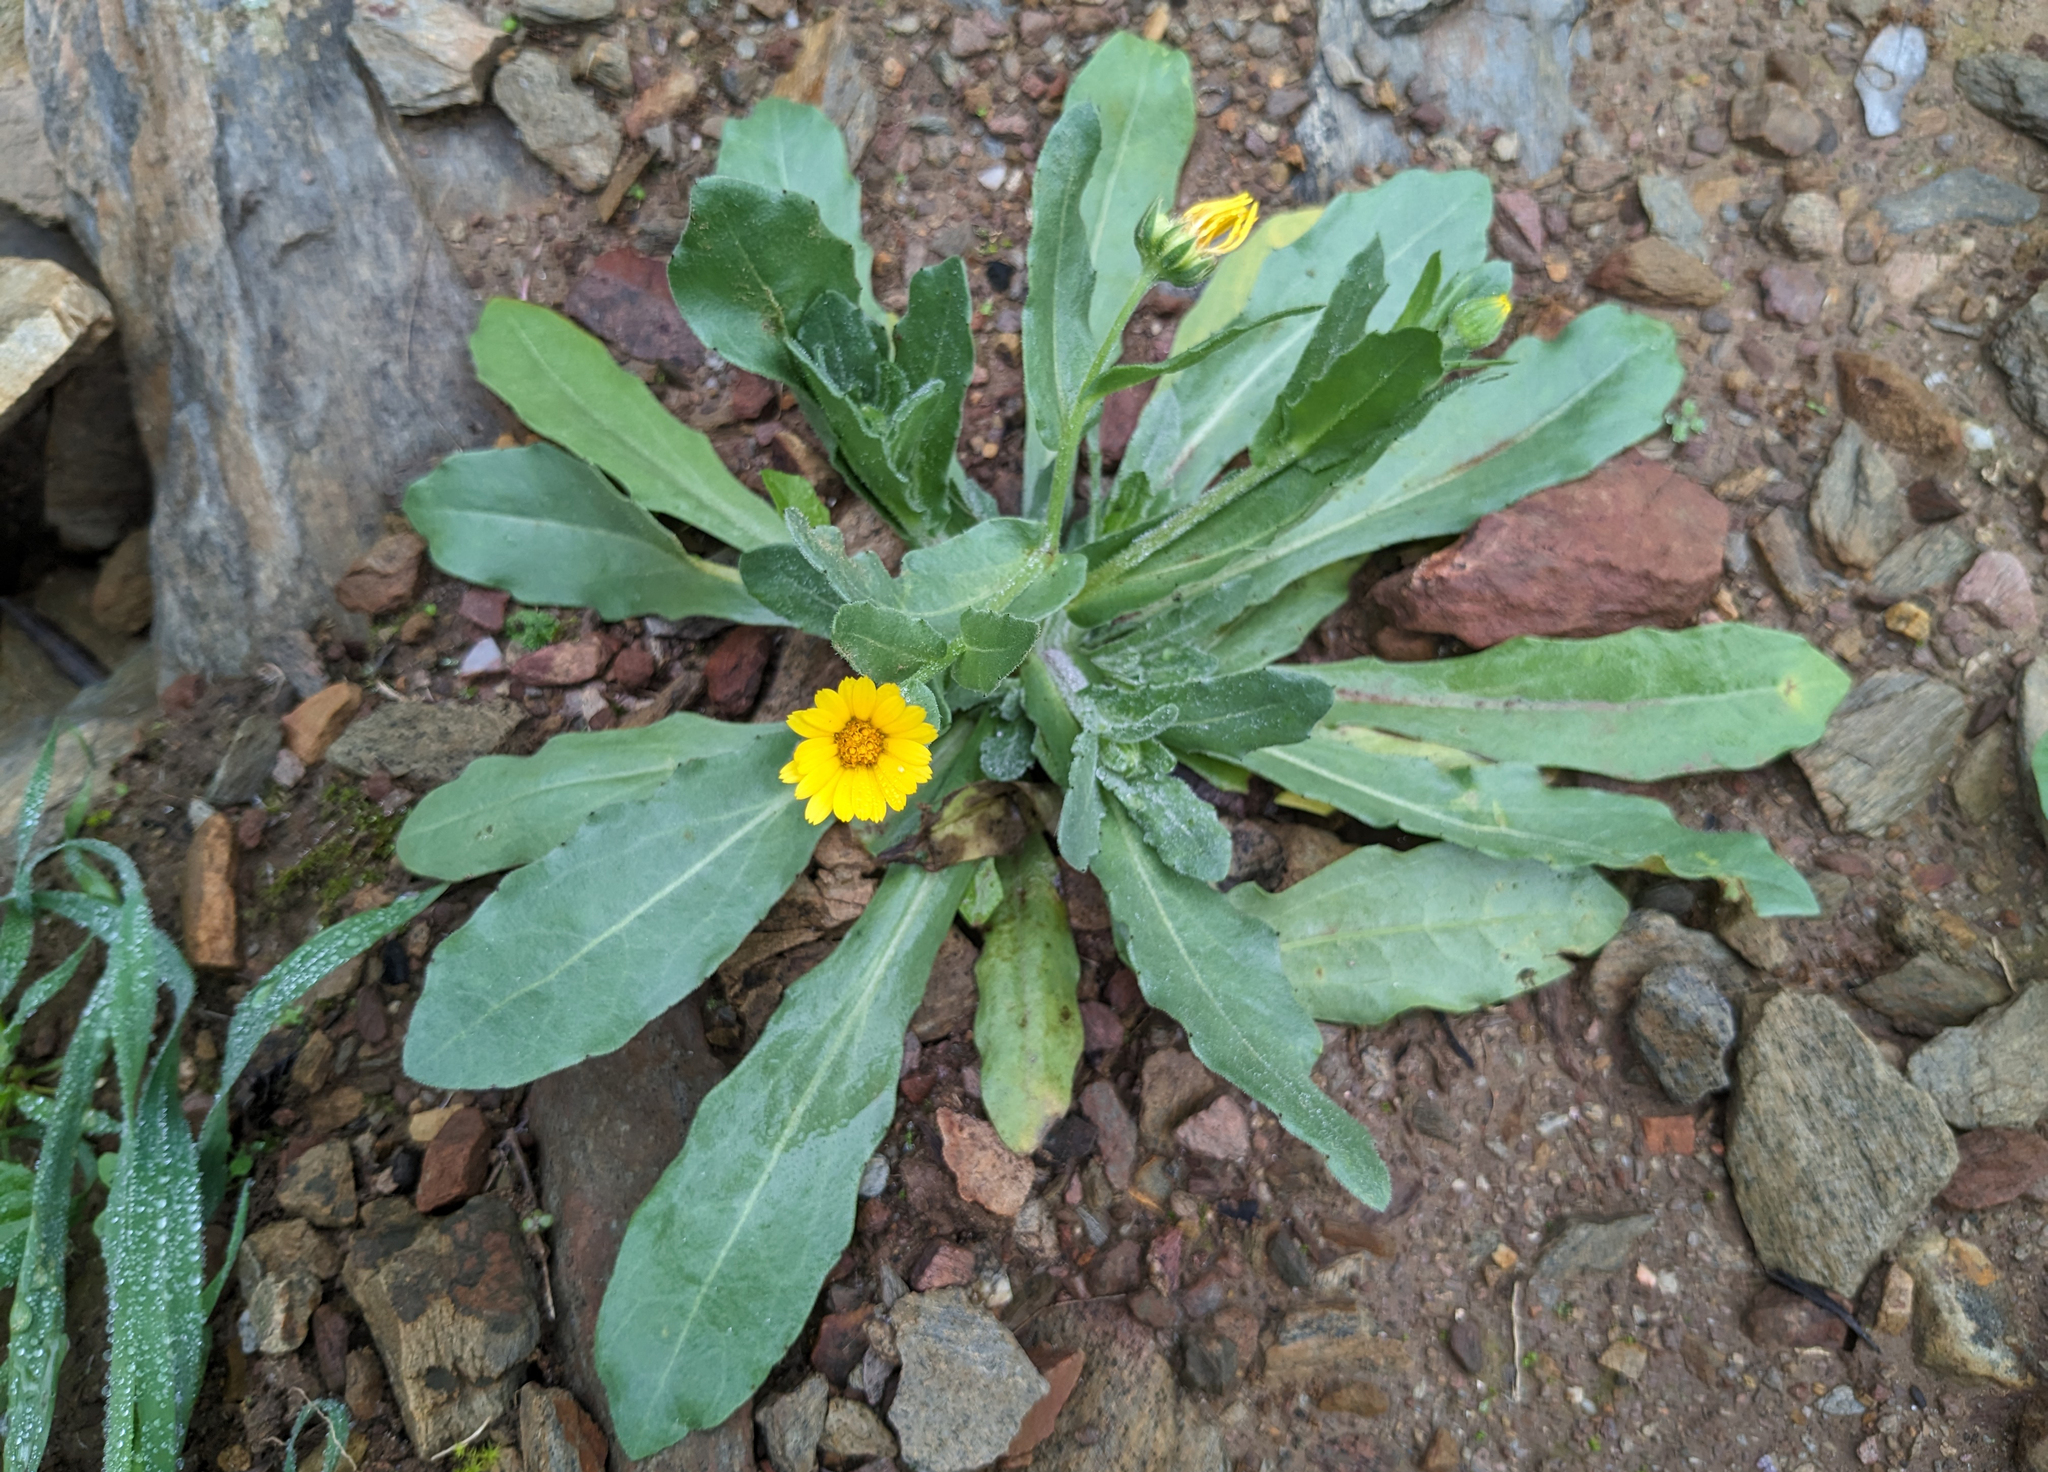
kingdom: Plantae
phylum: Tracheophyta
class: Magnoliopsida
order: Asterales
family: Asteraceae
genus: Calendula
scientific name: Calendula arvensis
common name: Field marigold
